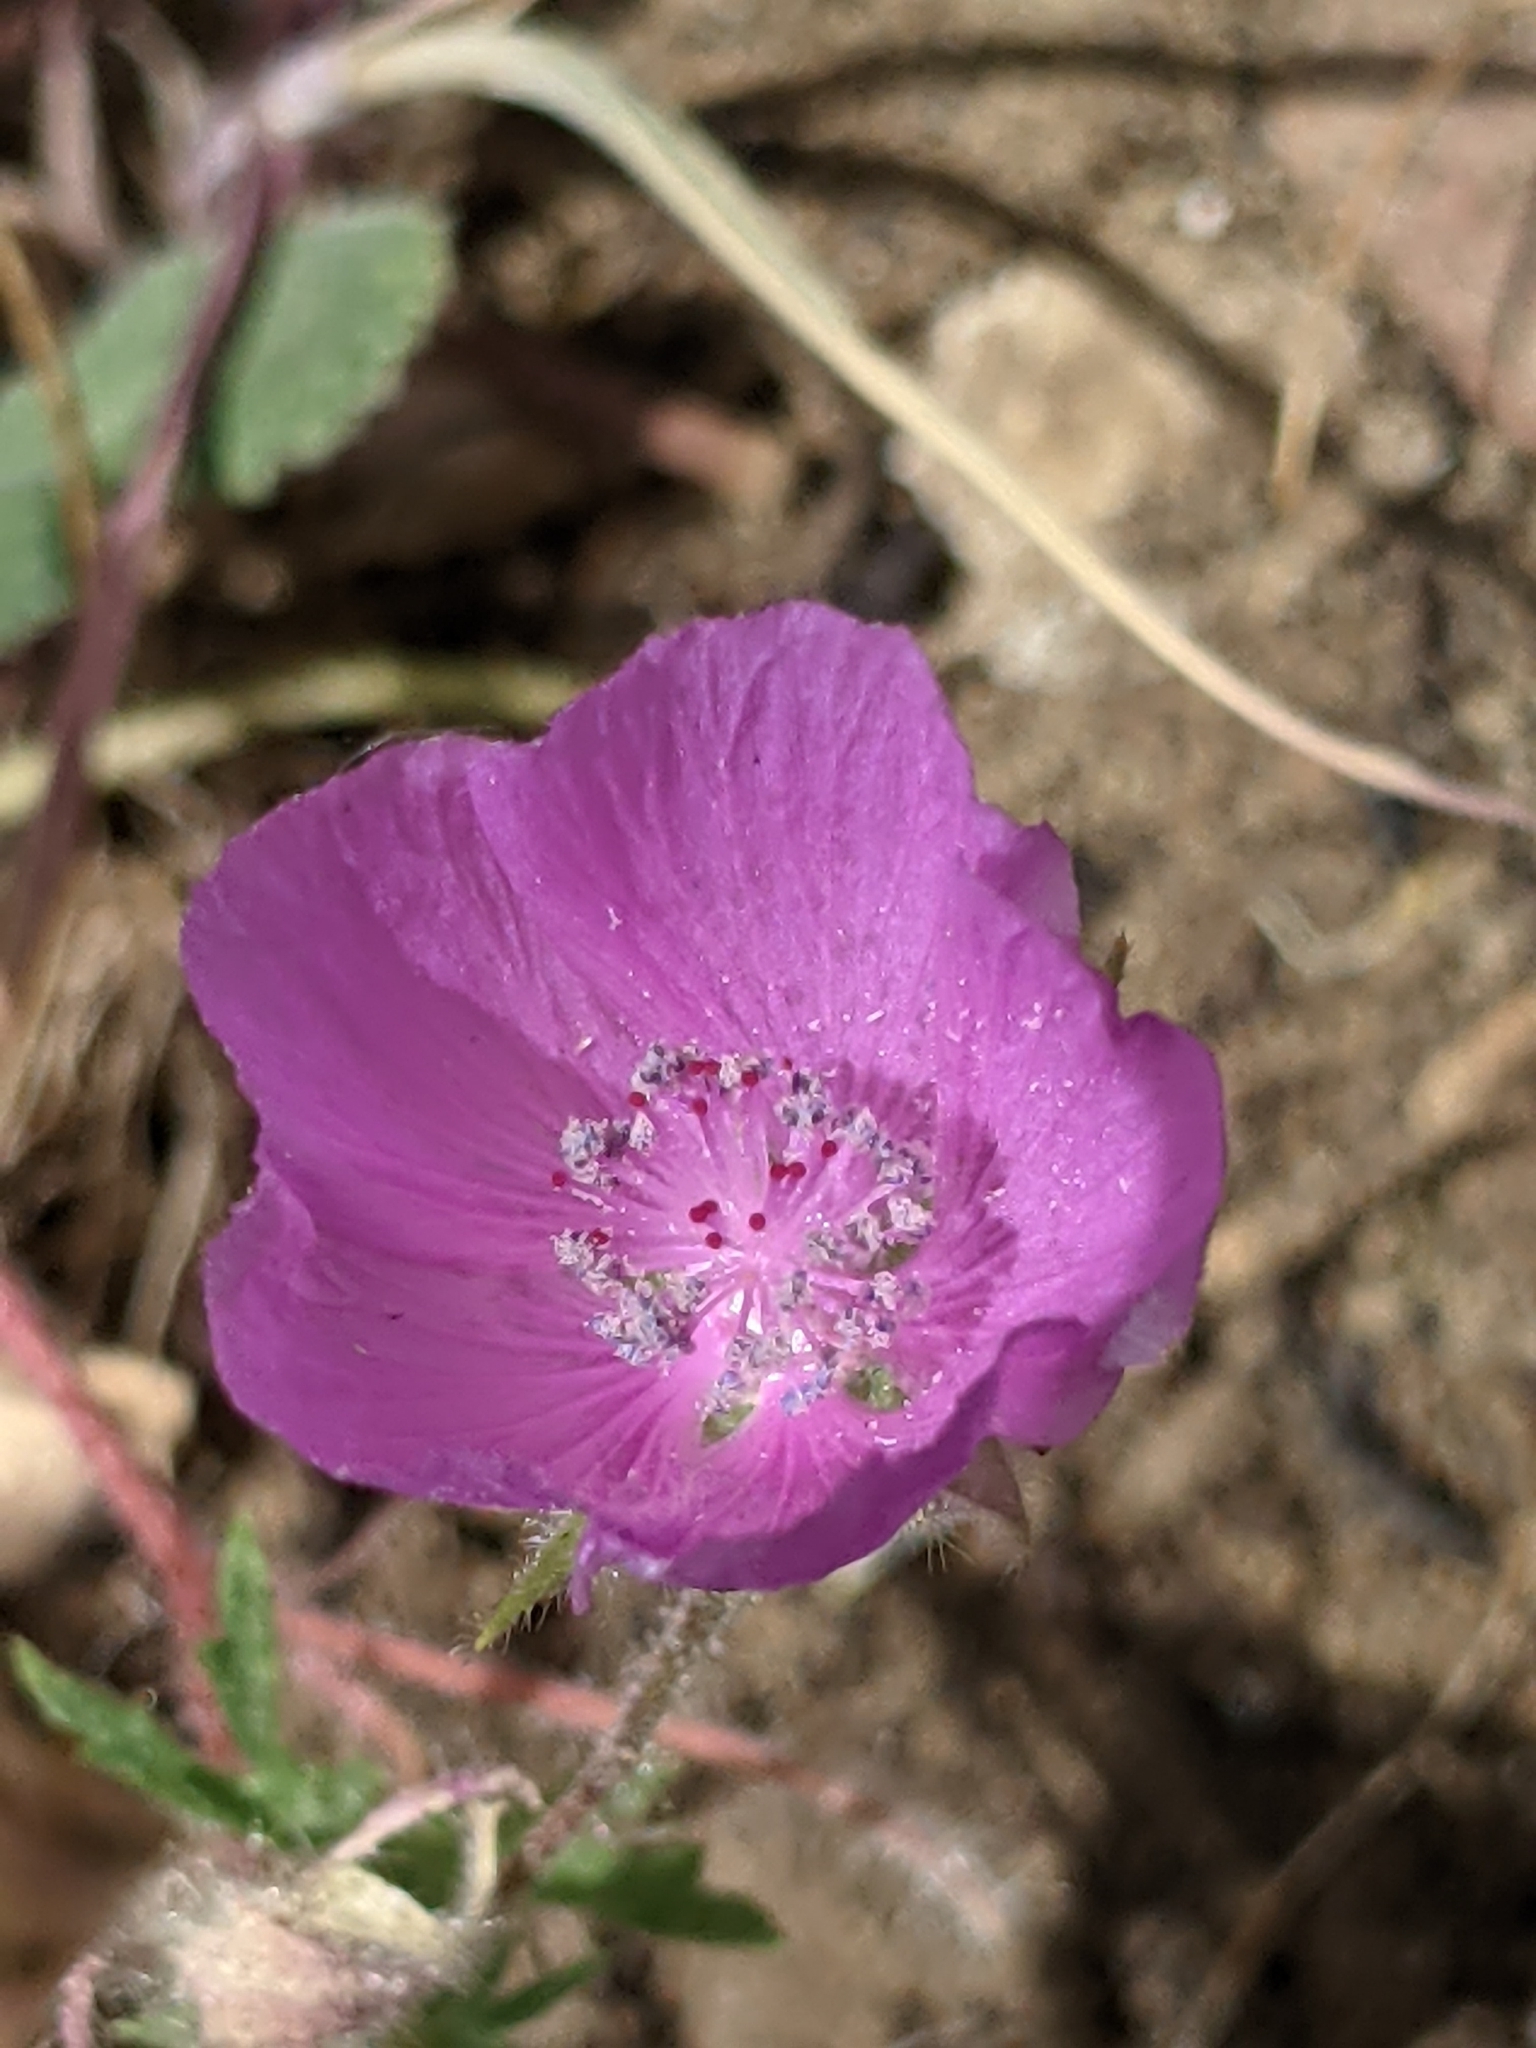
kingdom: Plantae
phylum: Tracheophyta
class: Magnoliopsida
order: Malvales
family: Malvaceae
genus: Eremalche
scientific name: Eremalche parryi
